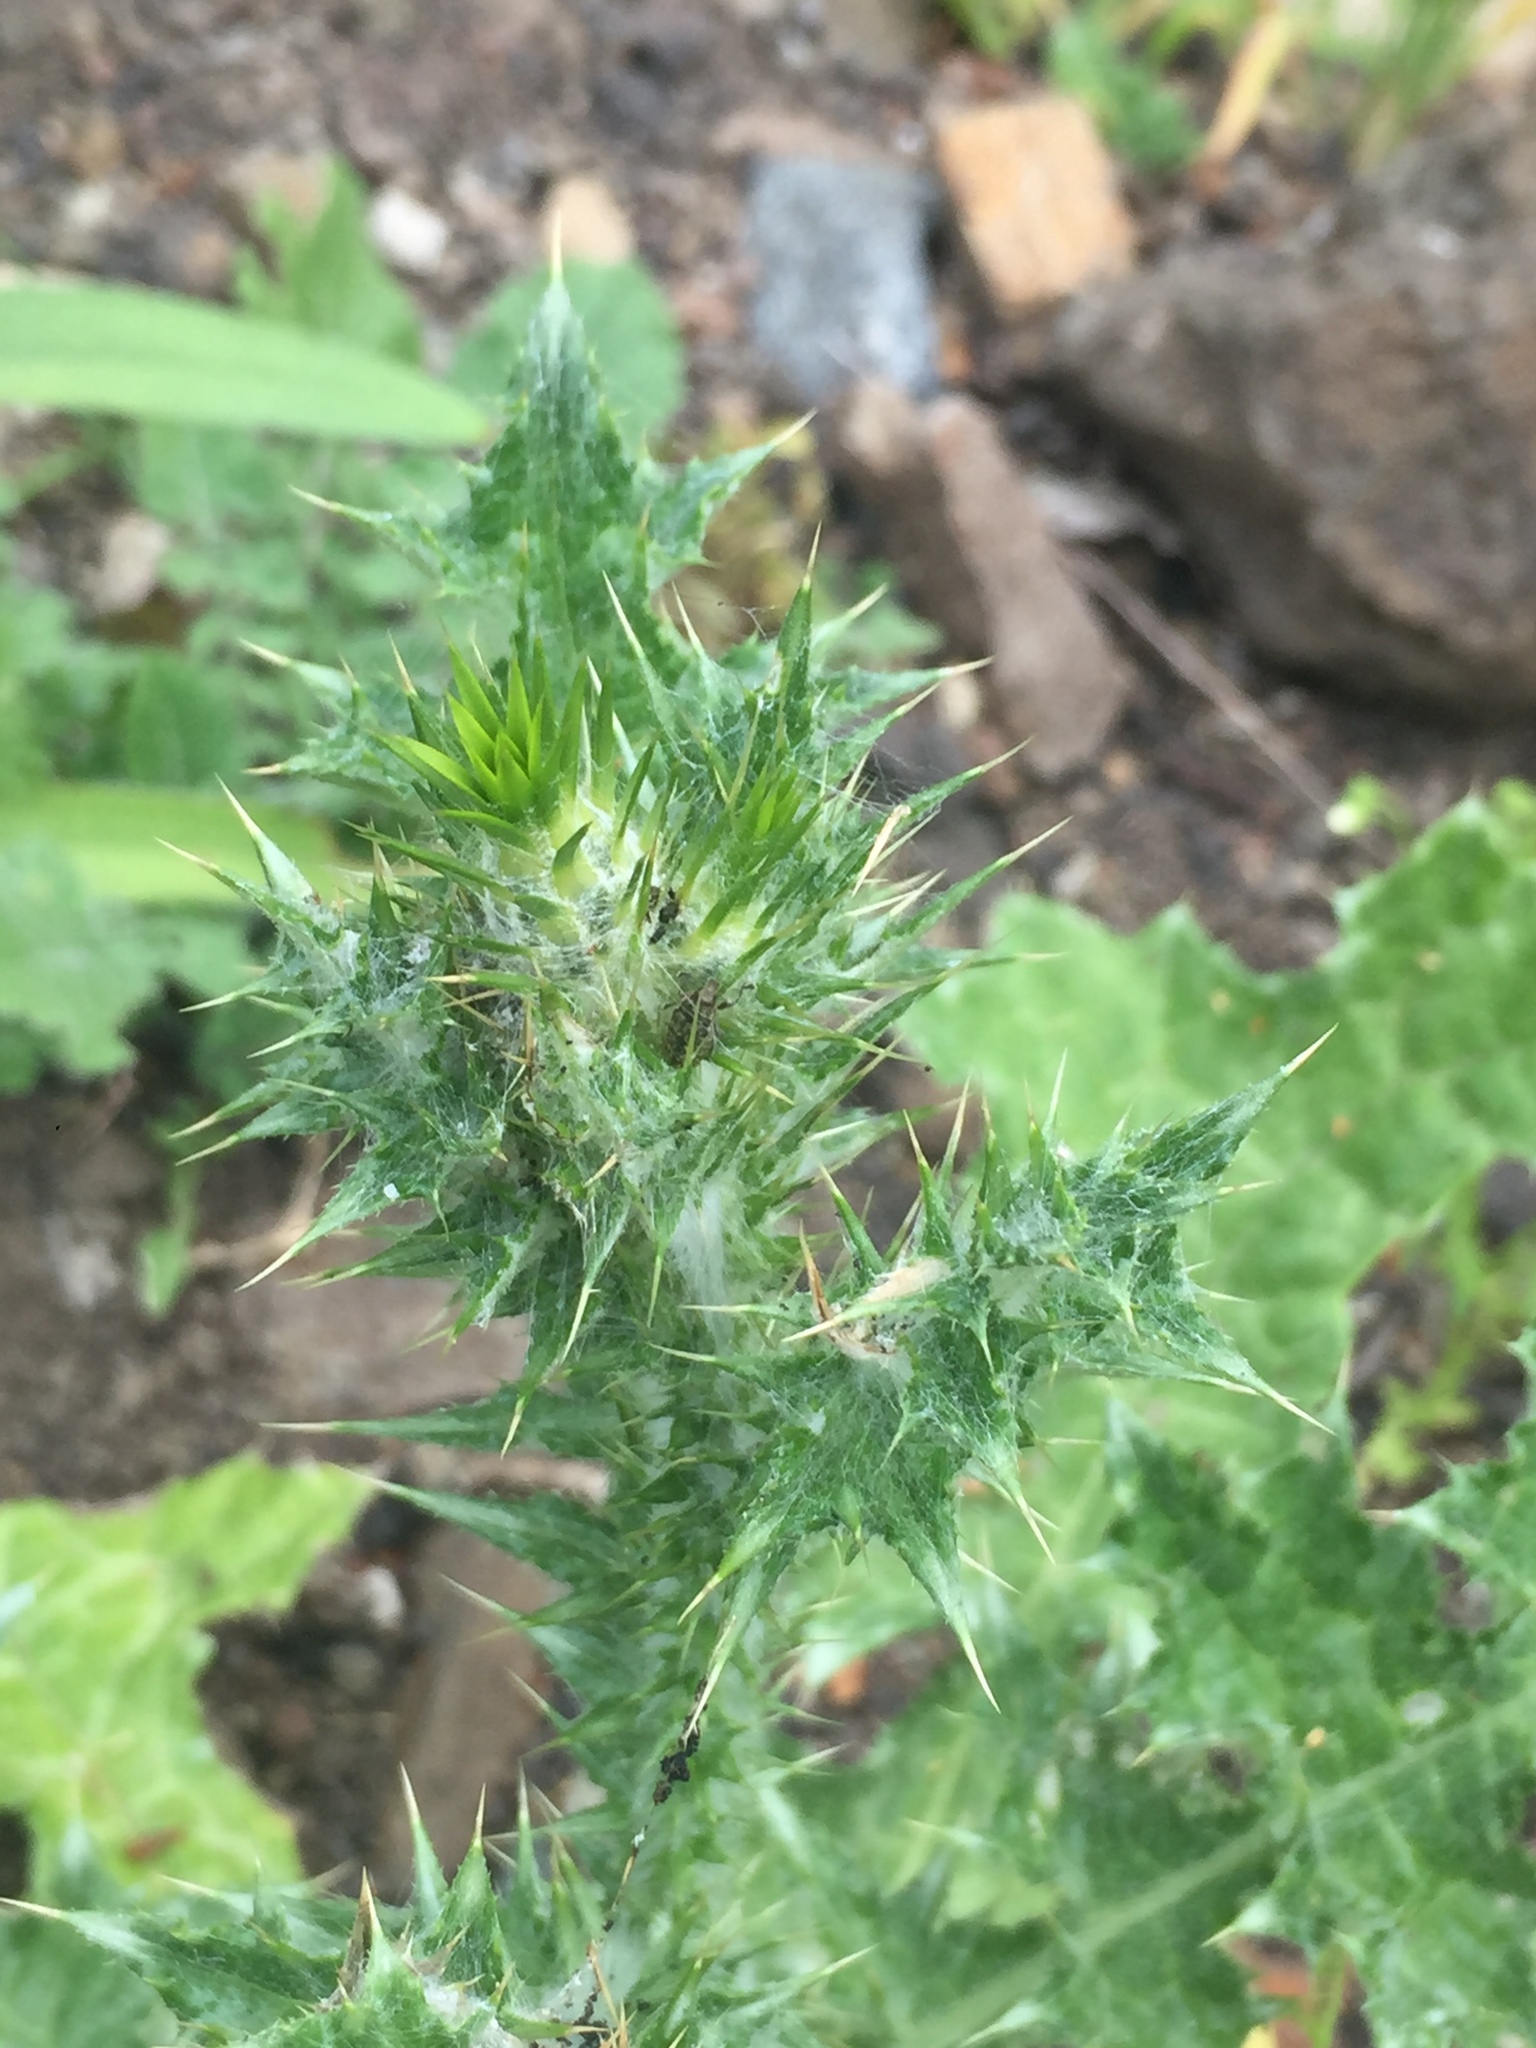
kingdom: Plantae
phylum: Tracheophyta
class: Magnoliopsida
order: Asterales
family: Asteraceae
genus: Carduus
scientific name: Carduus pycnocephalus
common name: Plymouth thistle
